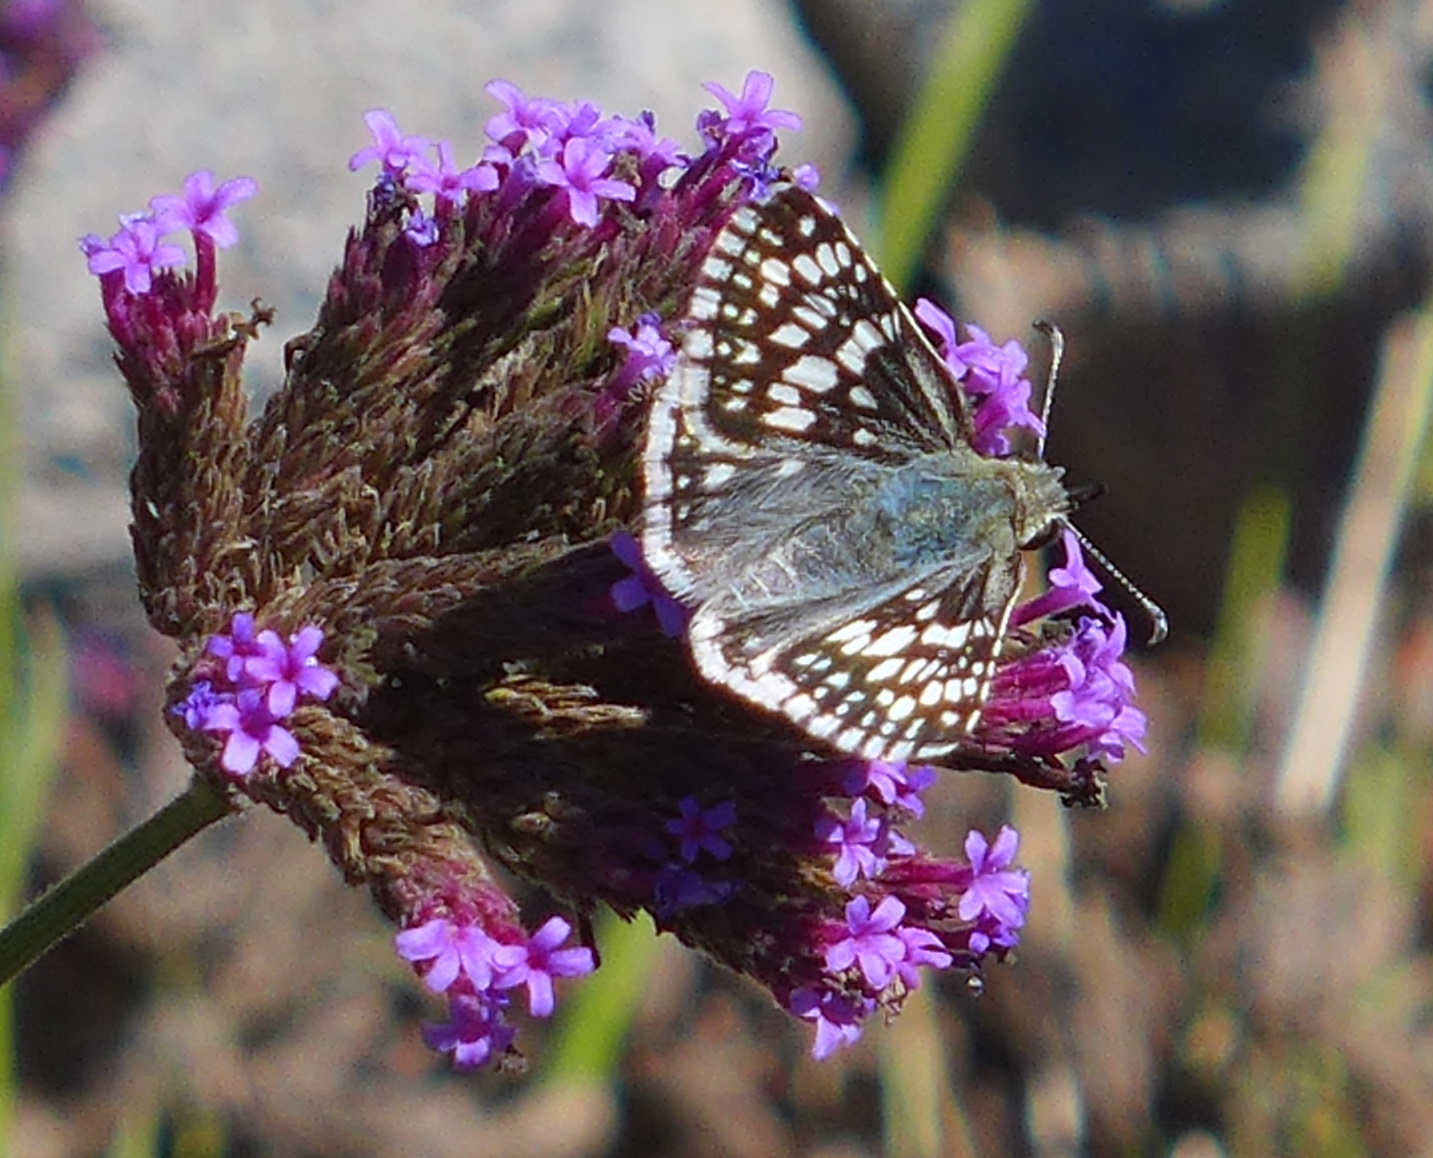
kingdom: Animalia
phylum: Arthropoda
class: Insecta
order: Lepidoptera
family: Hesperiidae
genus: Burnsius
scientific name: Burnsius communis
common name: Common checkered-skipper
